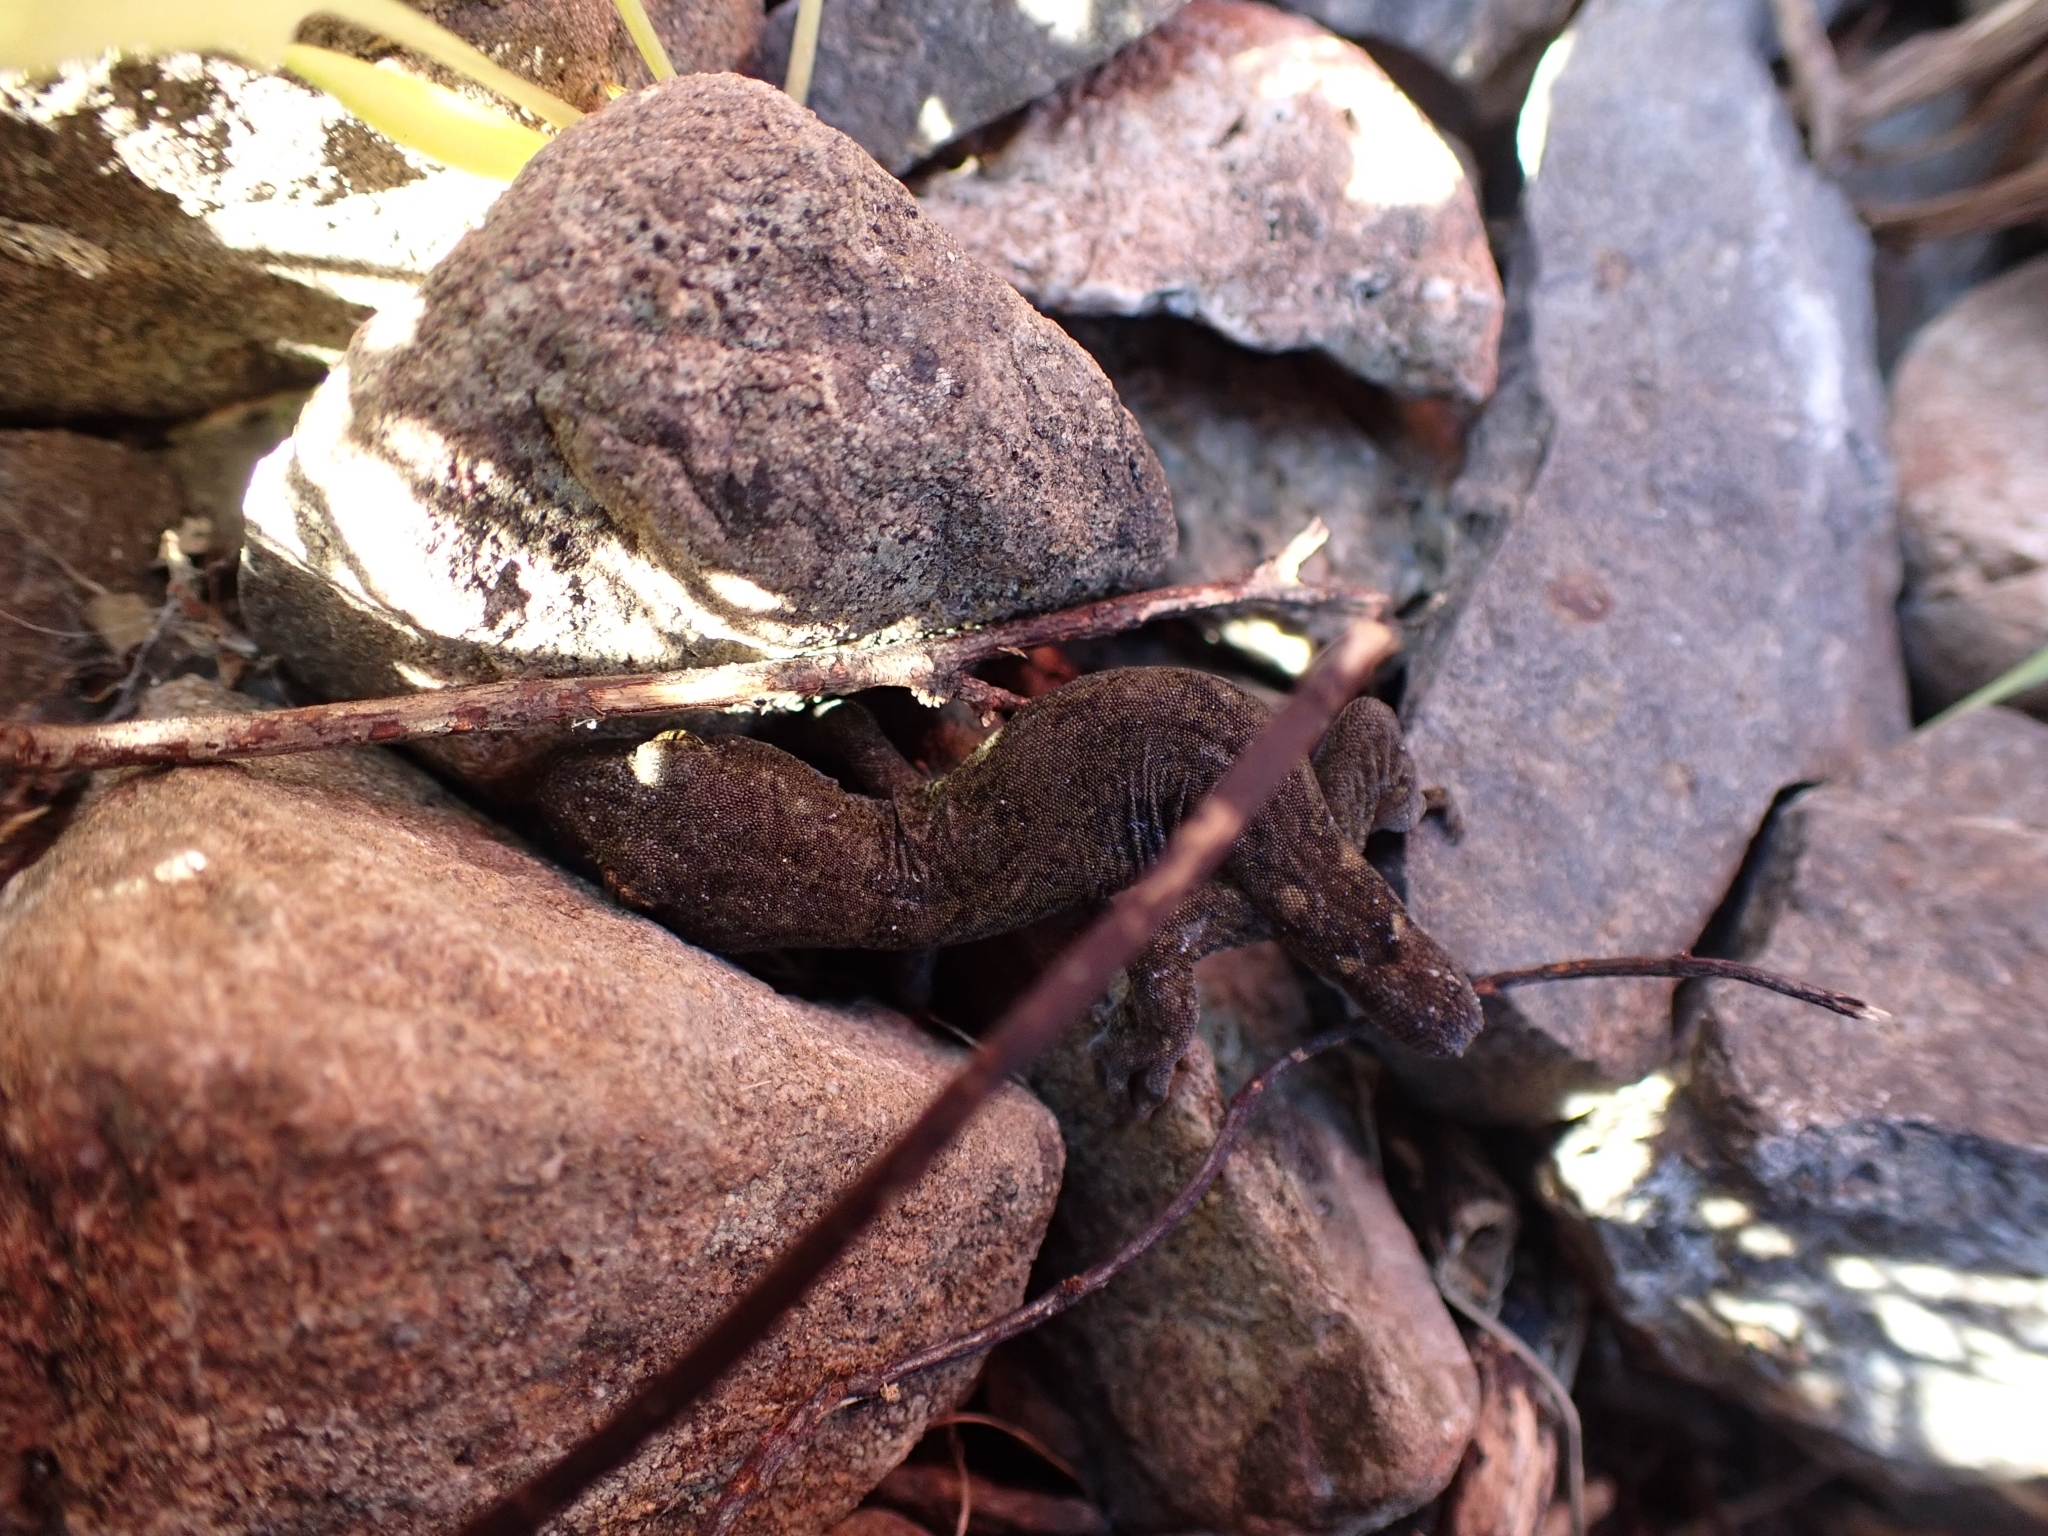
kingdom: Animalia
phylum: Chordata
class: Squamata
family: Diplodactylidae
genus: Woodworthia
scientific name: Woodworthia maculata
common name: Raukawa gecko
